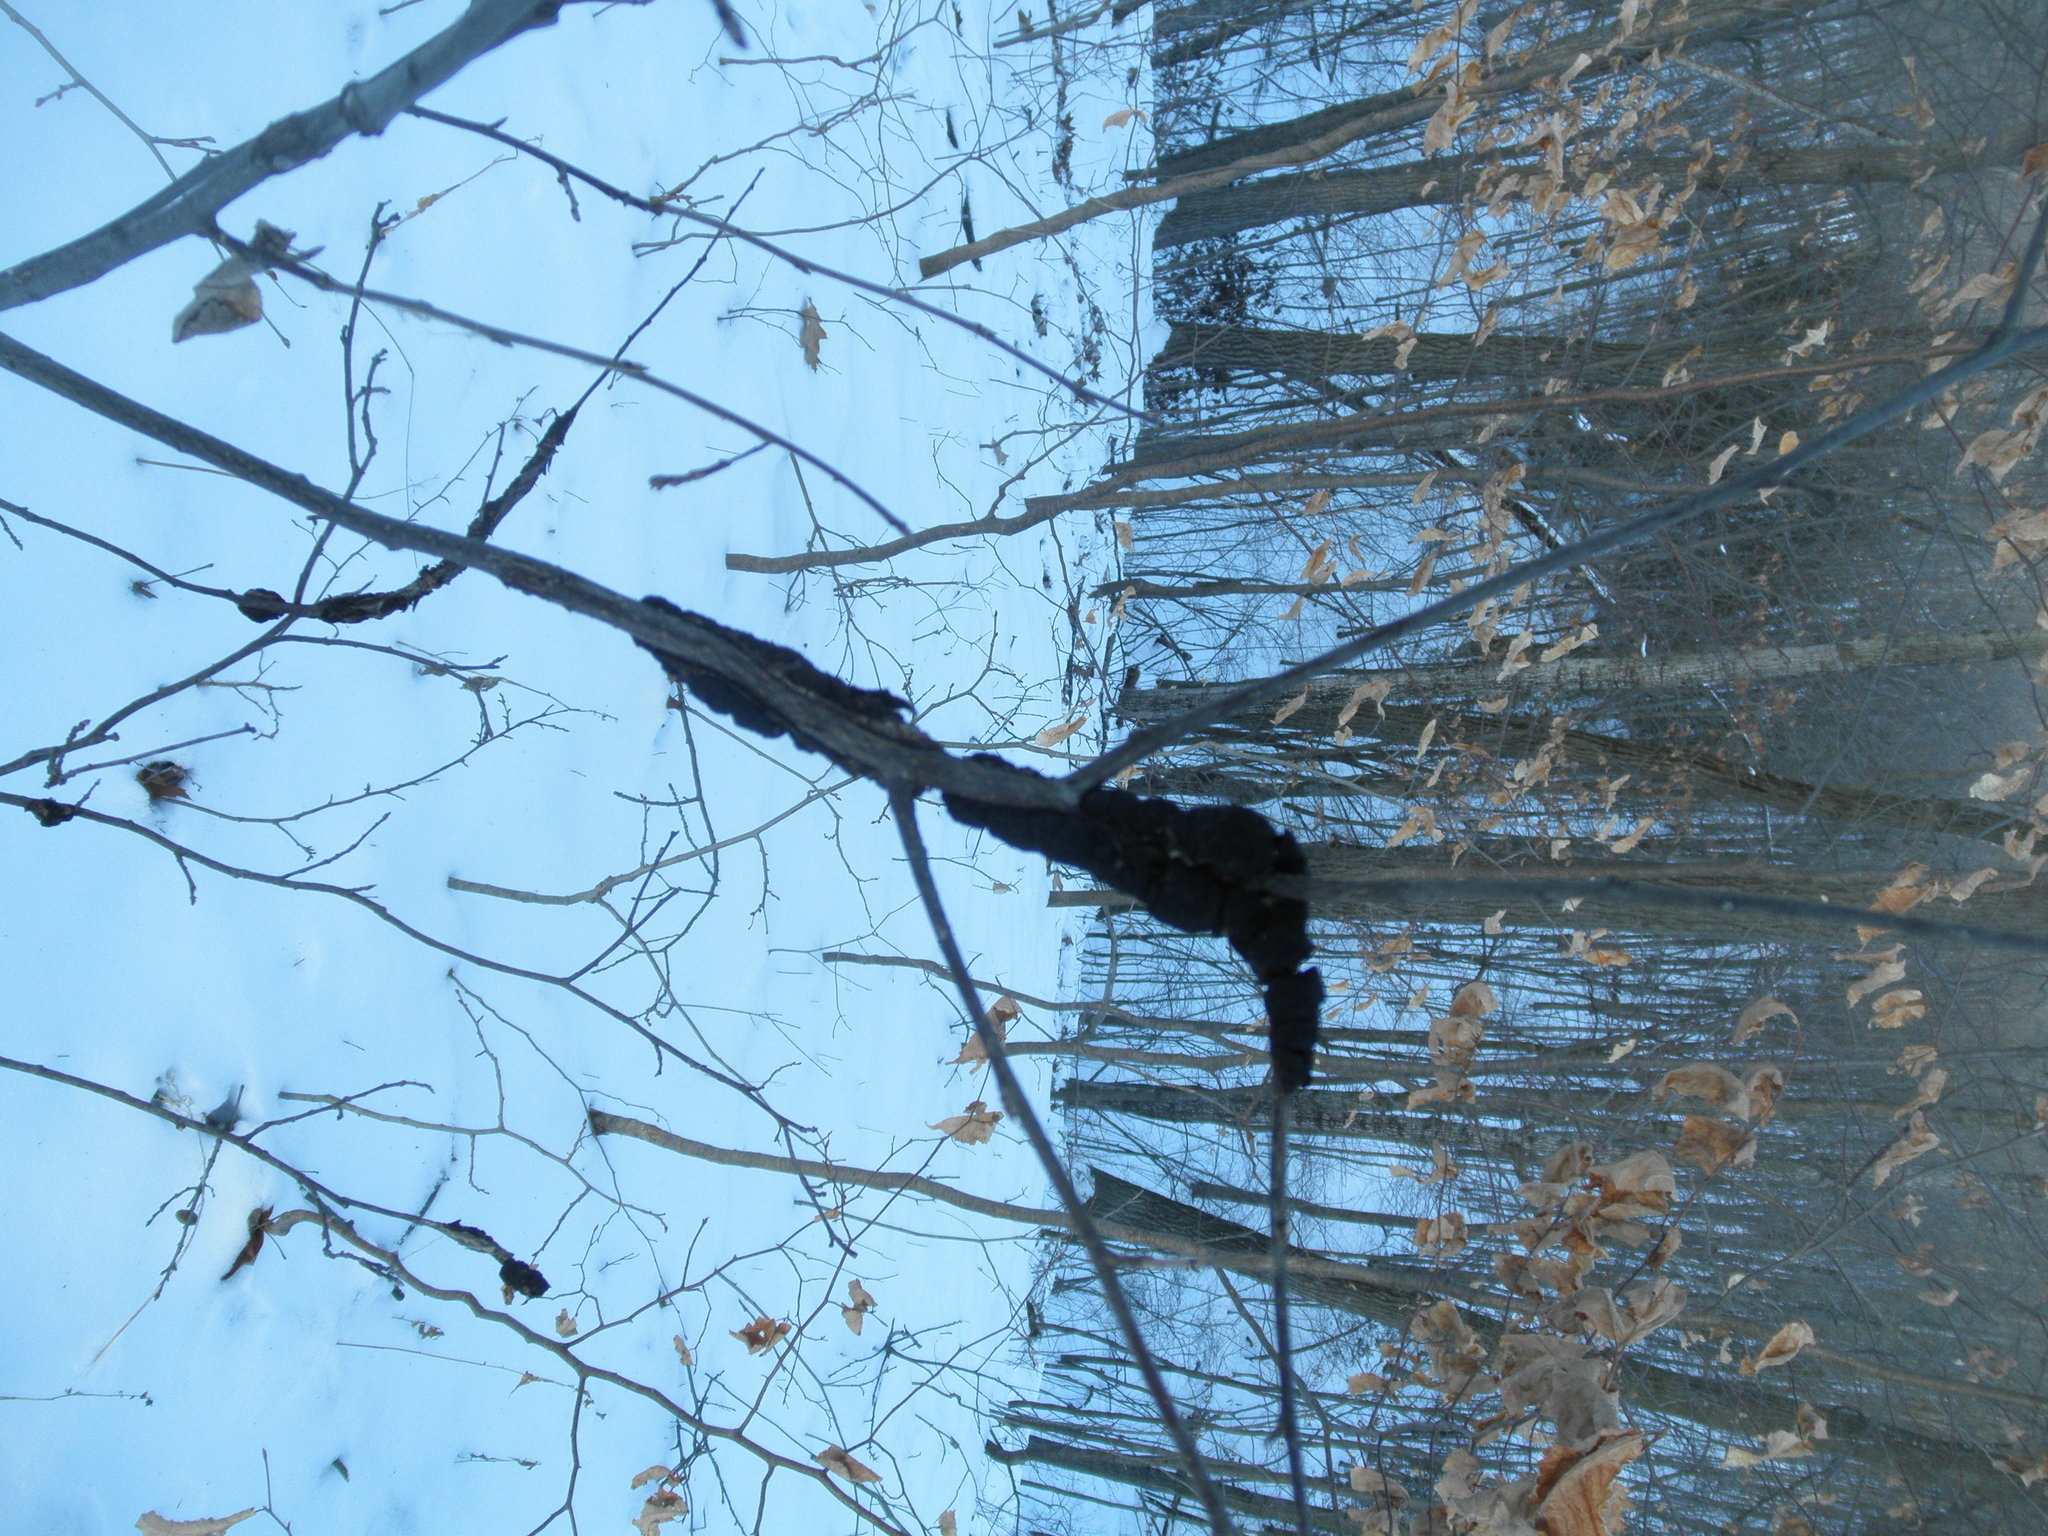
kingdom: Fungi
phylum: Ascomycota
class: Dothideomycetes
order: Venturiales
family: Venturiaceae
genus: Apiosporina
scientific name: Apiosporina morbosa
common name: Black knot
